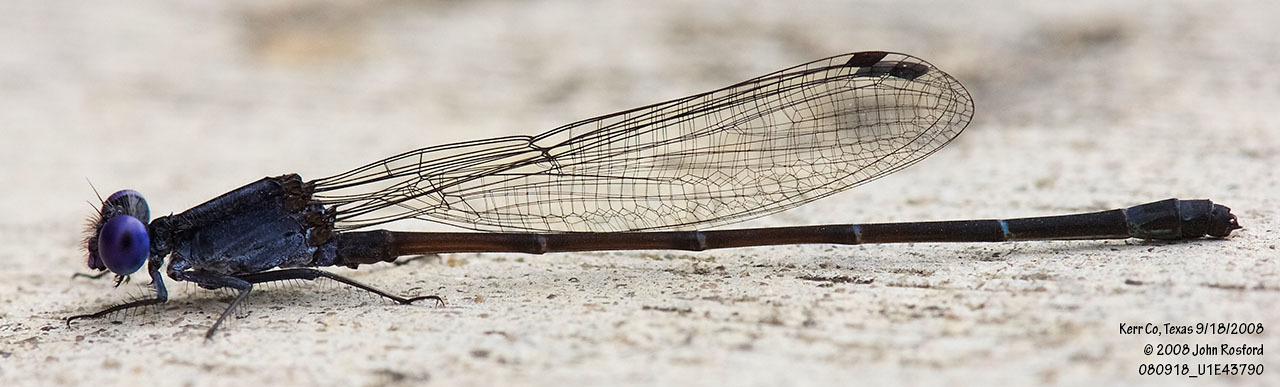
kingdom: Animalia
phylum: Arthropoda
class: Insecta
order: Odonata
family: Coenagrionidae
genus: Argia
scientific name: Argia translata
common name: Dusky dancer
